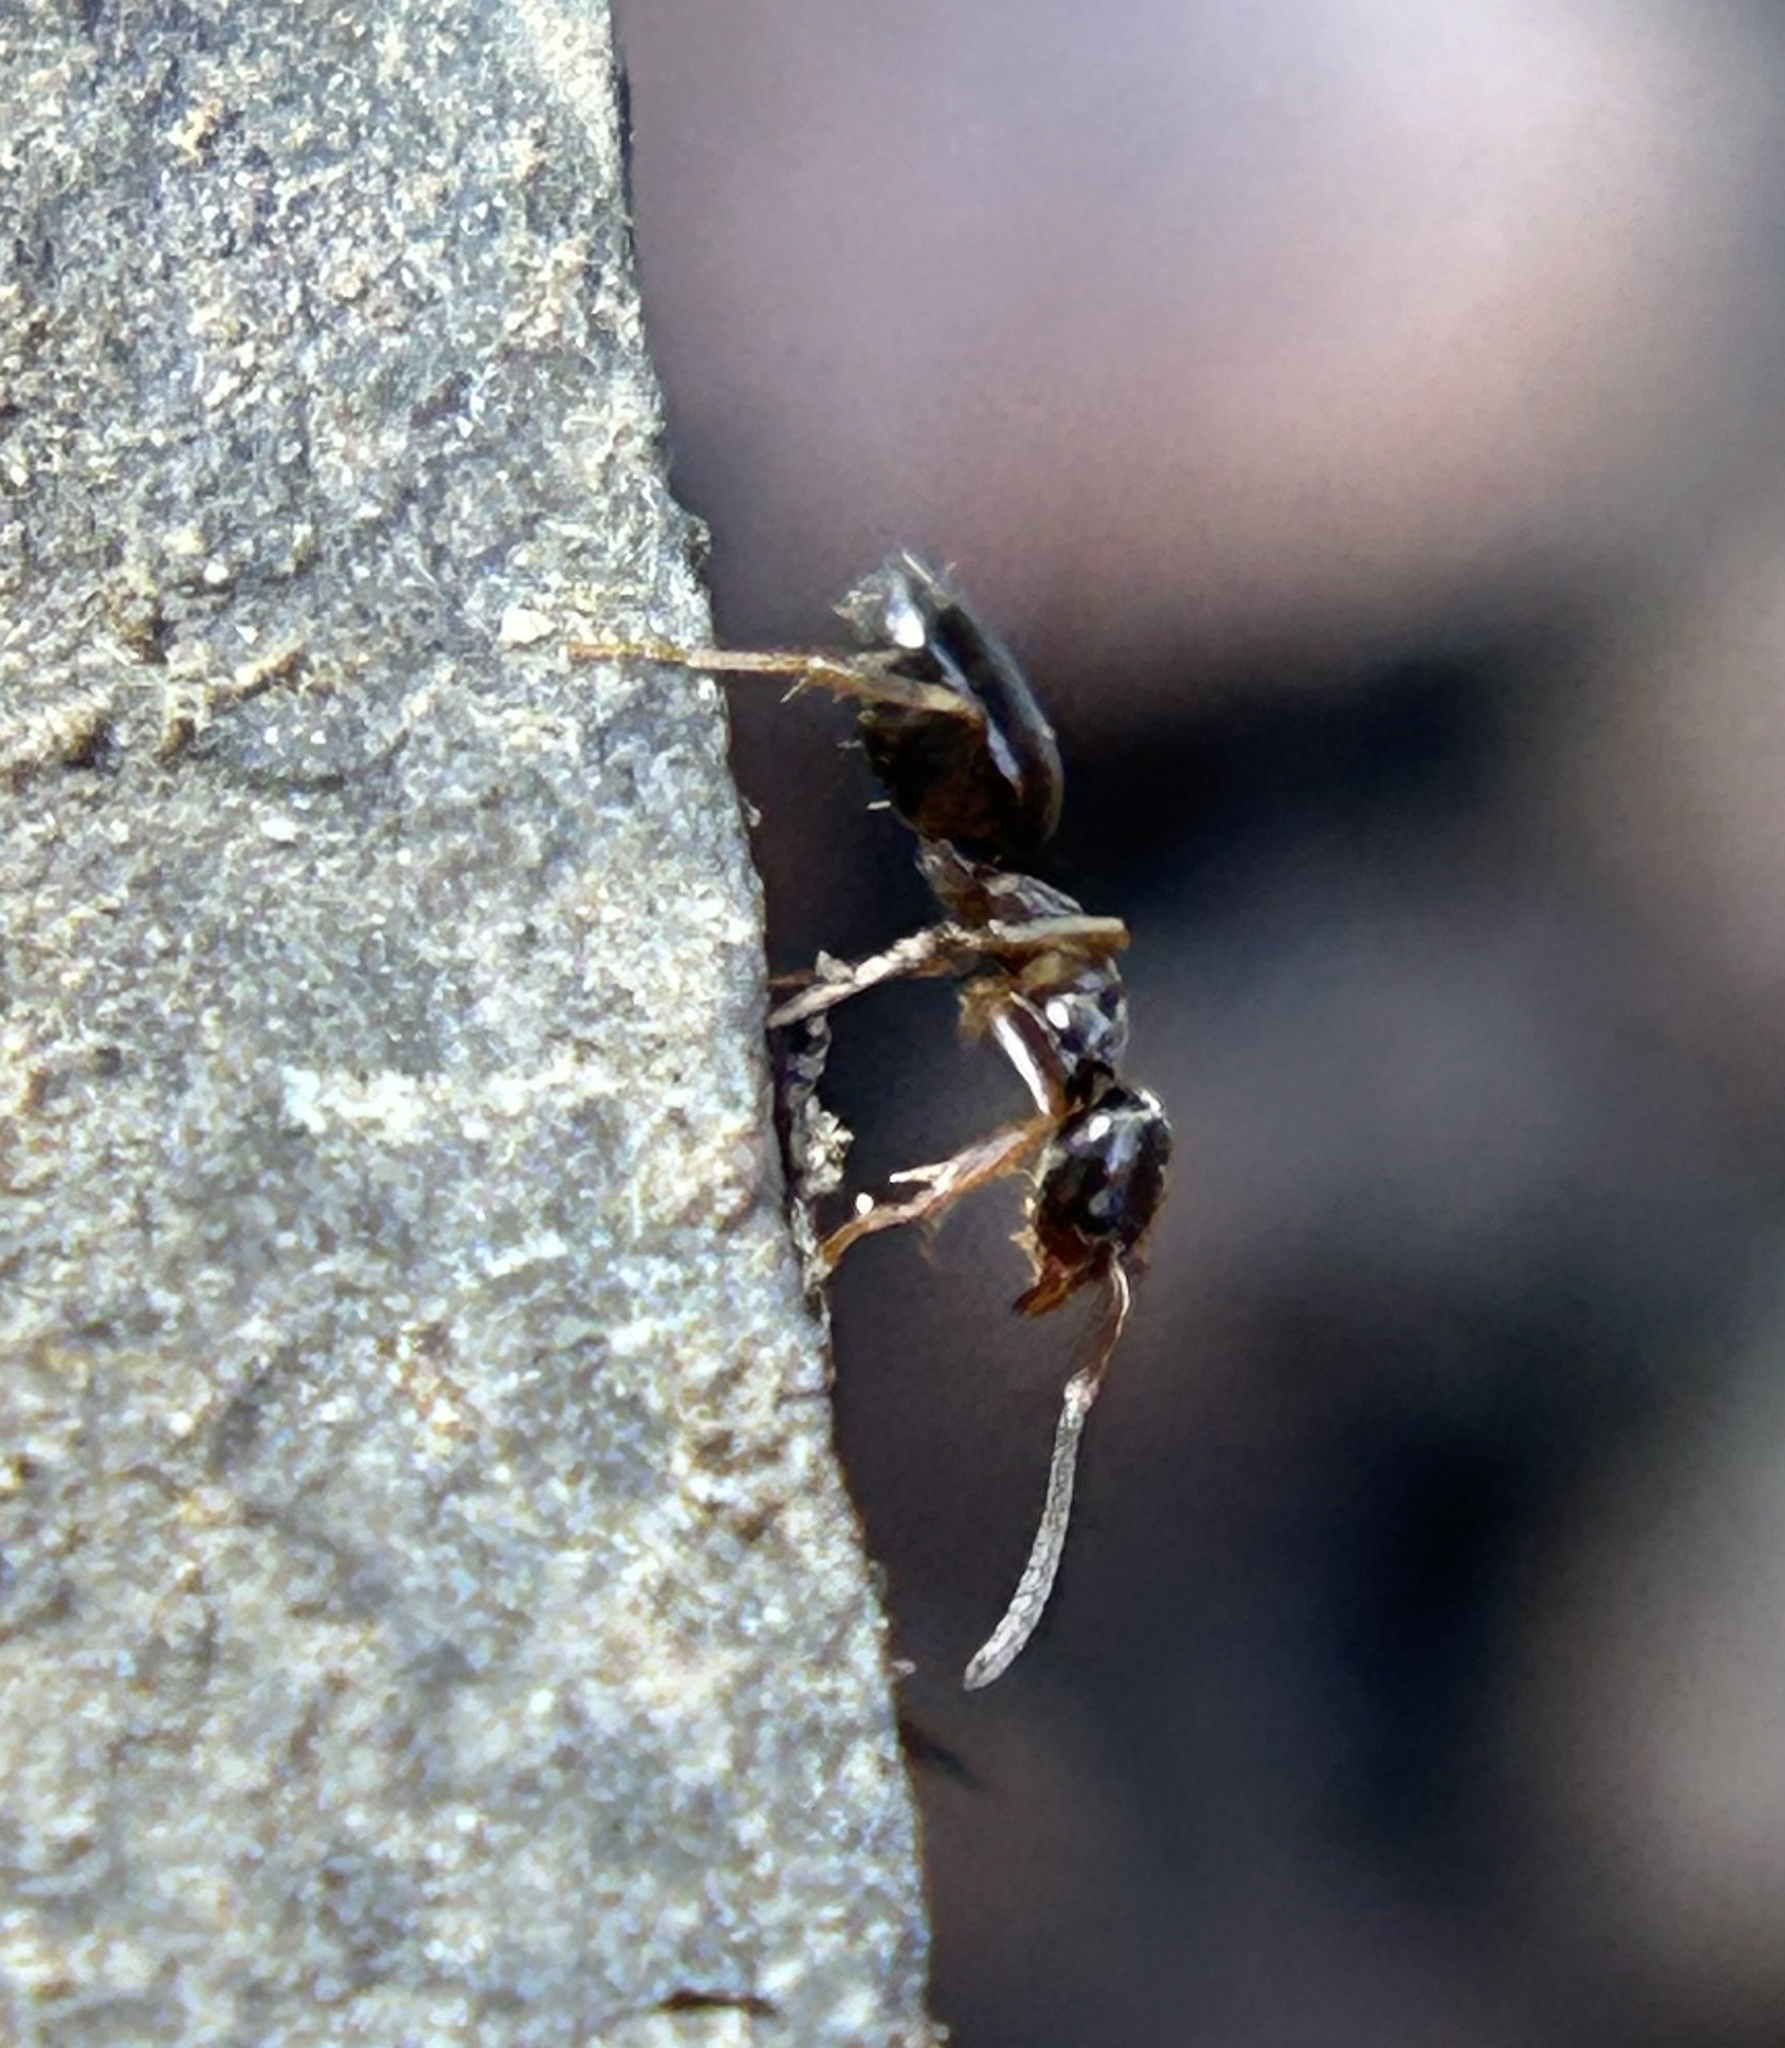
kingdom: Animalia
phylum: Arthropoda
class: Insecta
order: Hymenoptera
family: Formicidae
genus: Tapinoma
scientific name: Tapinoma sessile
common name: Odorous house ant
